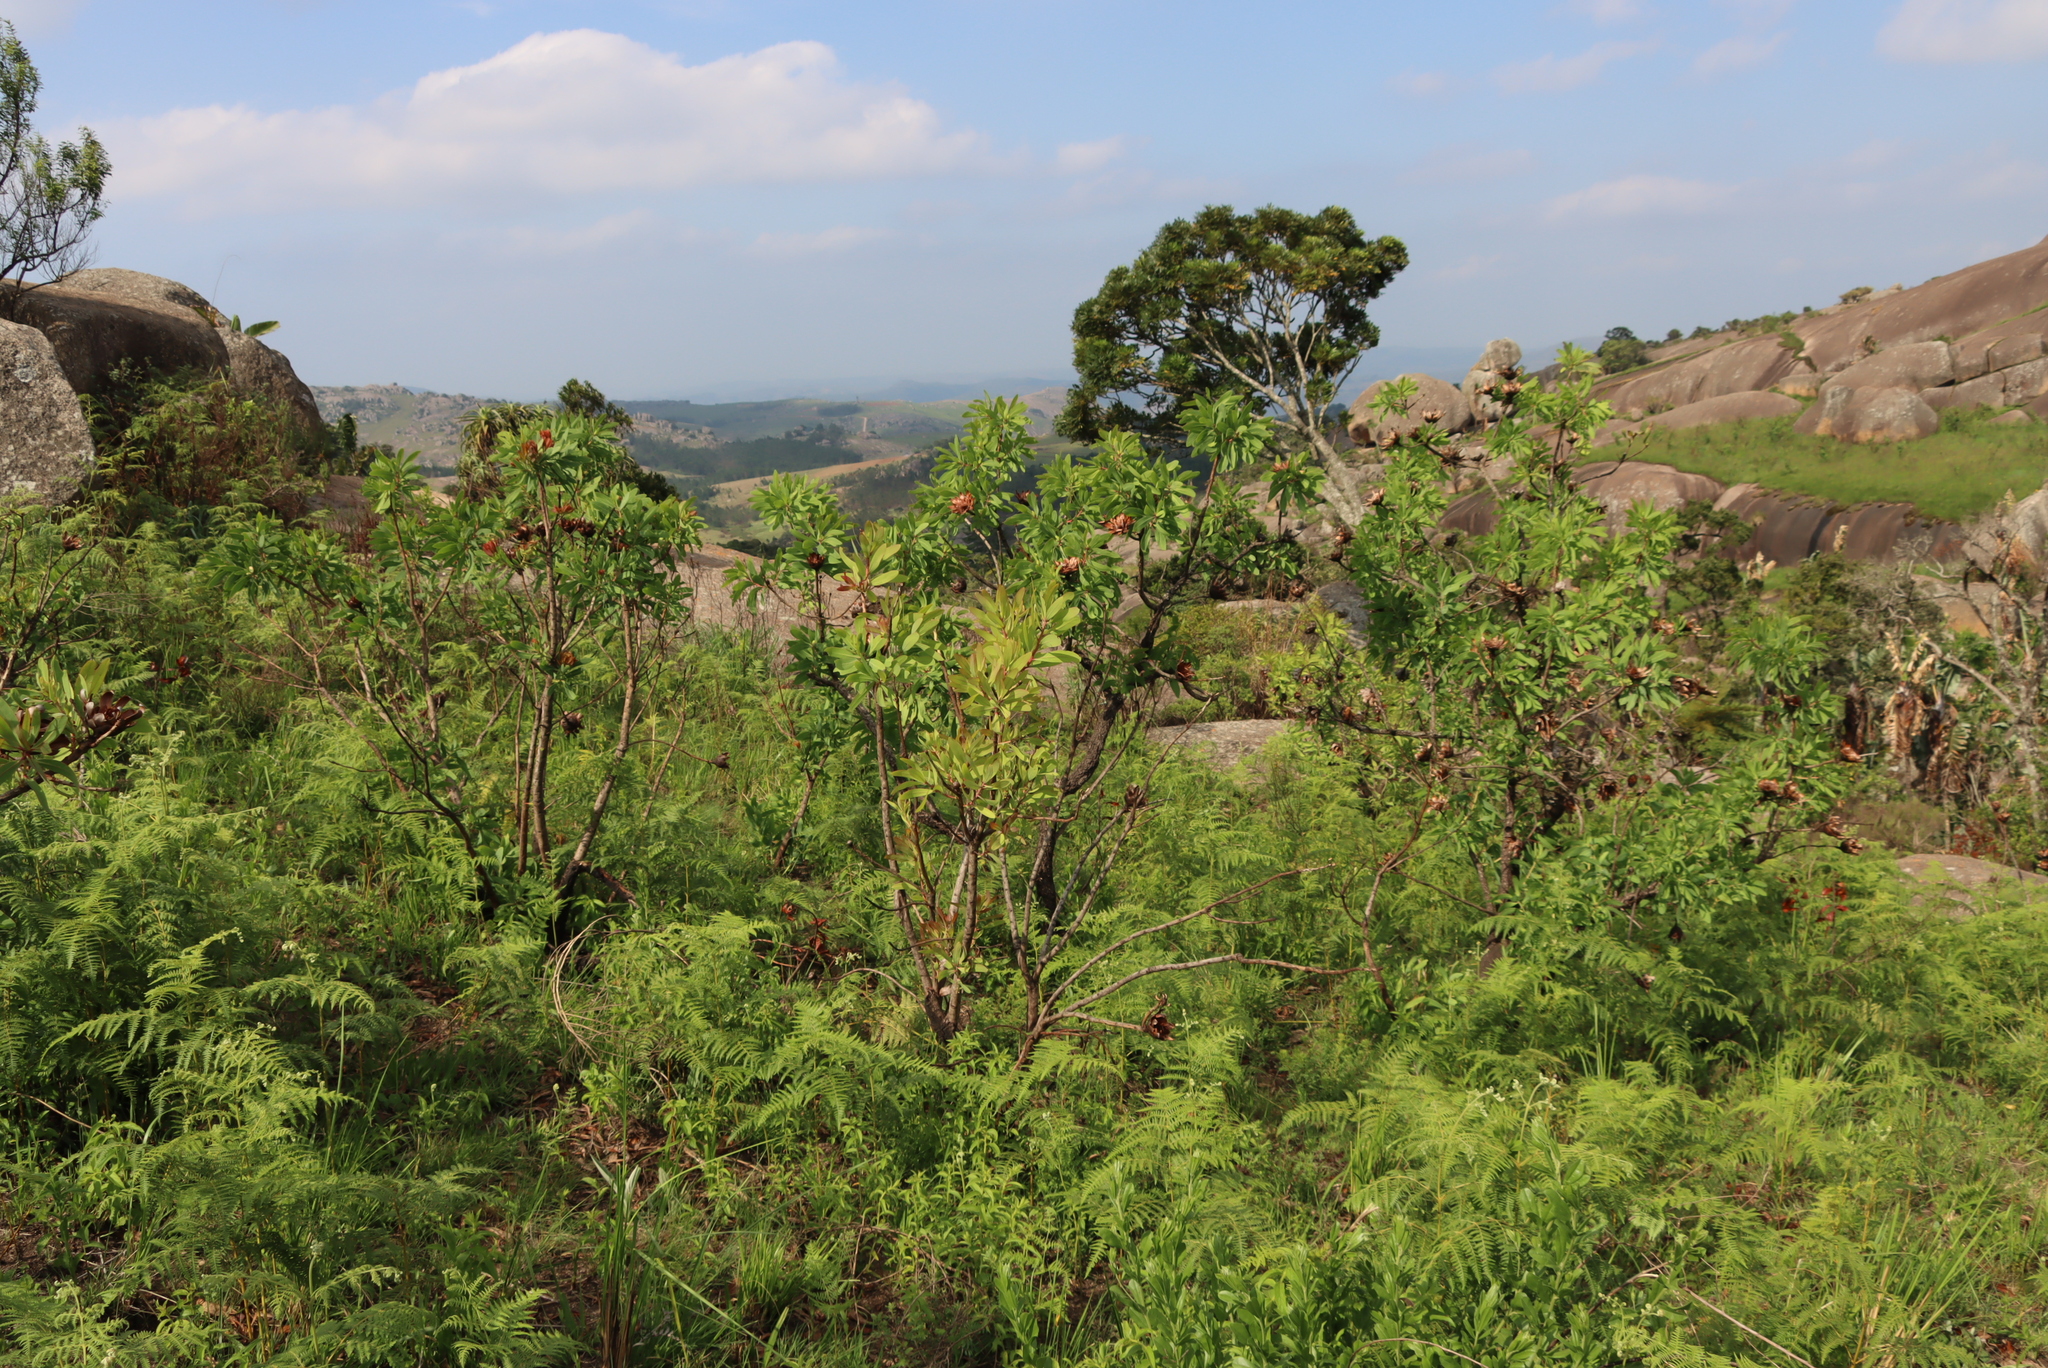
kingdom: Plantae
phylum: Tracheophyta
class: Polypodiopsida
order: Polypodiales
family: Dennstaedtiaceae
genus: Pteridium
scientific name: Pteridium aquilinum
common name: Bracken
